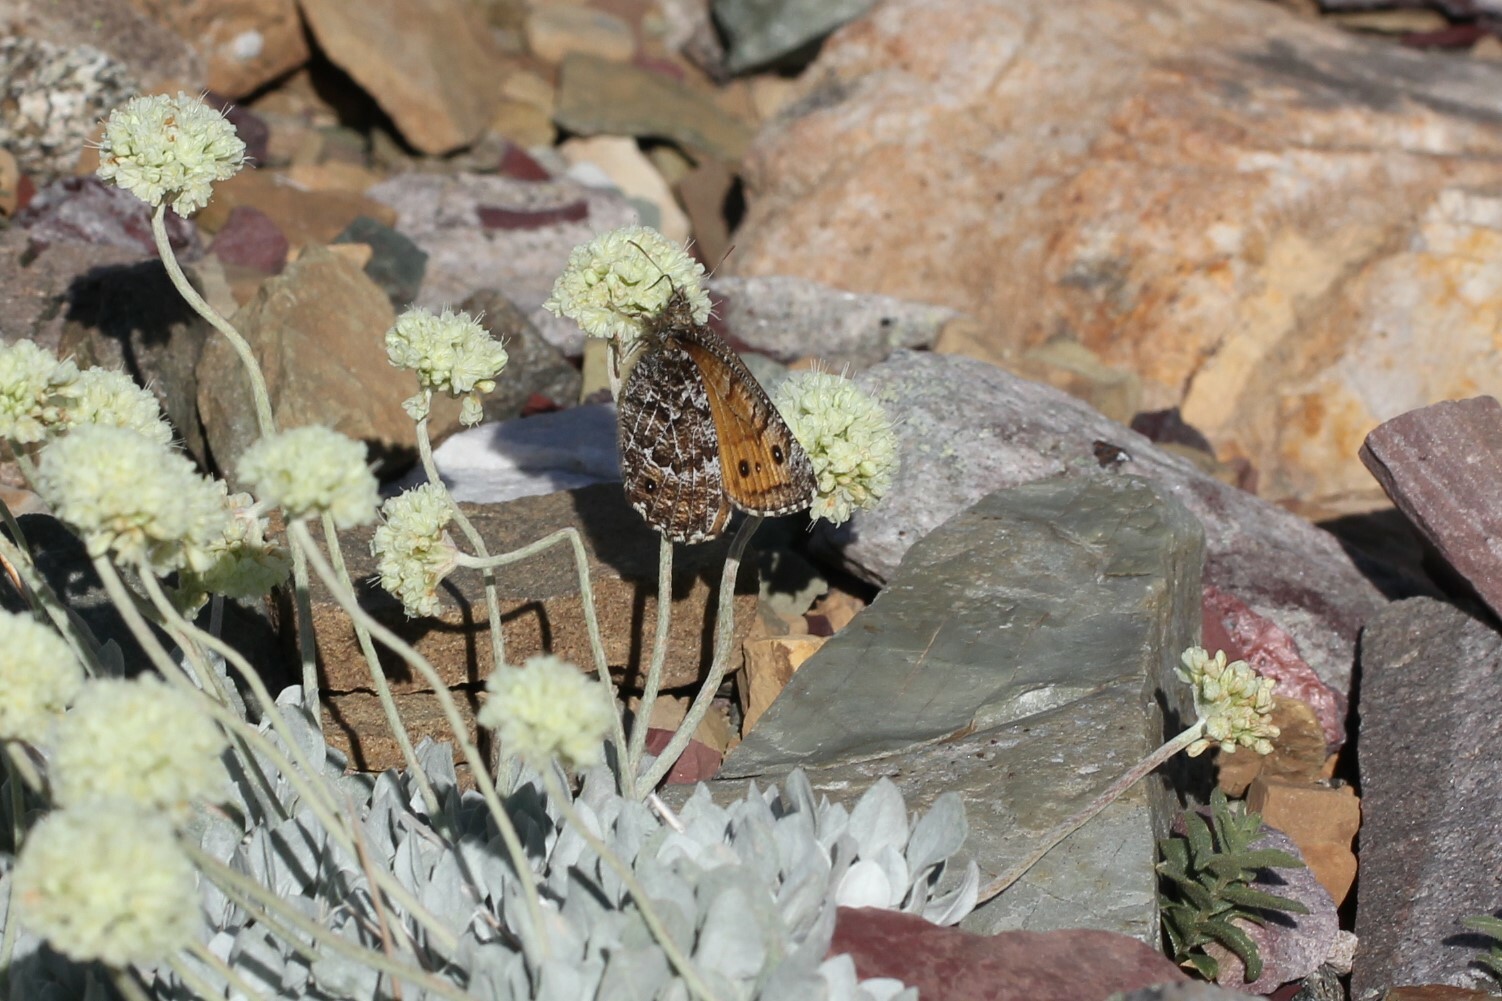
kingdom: Animalia
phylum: Arthropoda
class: Insecta
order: Lepidoptera
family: Nymphalidae
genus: Oeneis
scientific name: Oeneis chryxus
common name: Chryxus arctic
